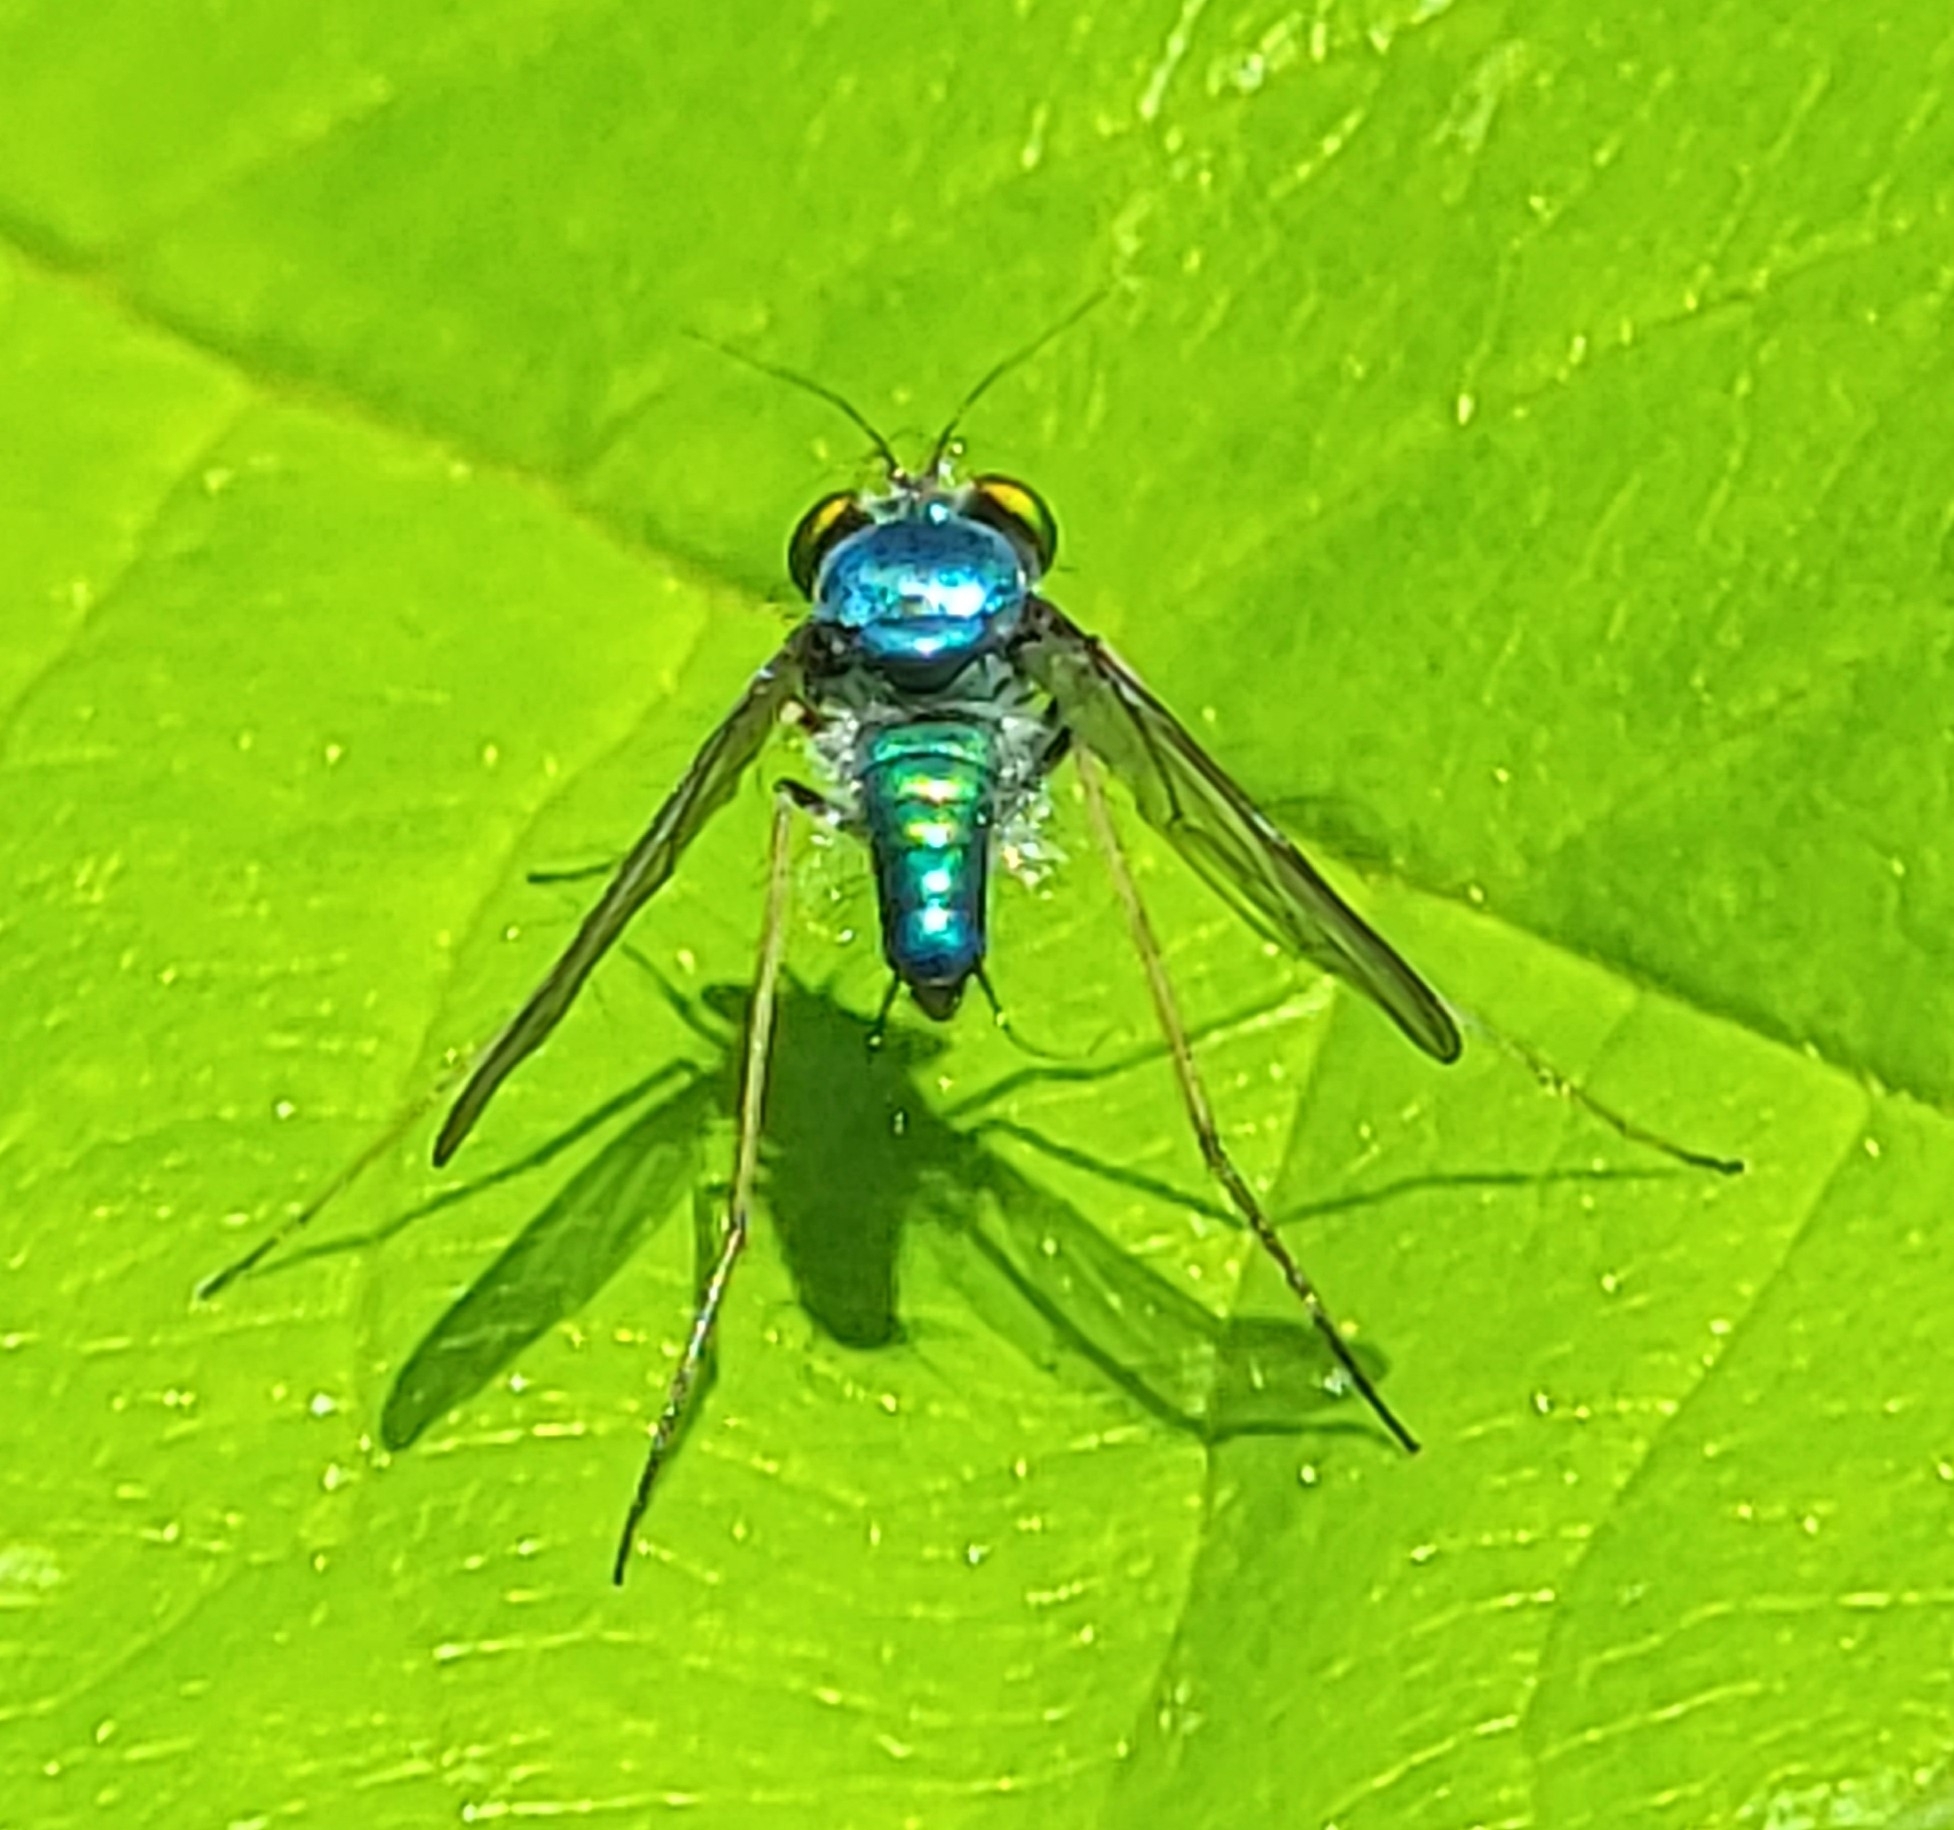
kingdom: Animalia
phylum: Arthropoda
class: Insecta
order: Diptera
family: Dolichopodidae
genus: Condylostylus
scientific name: Condylostylus comatus
